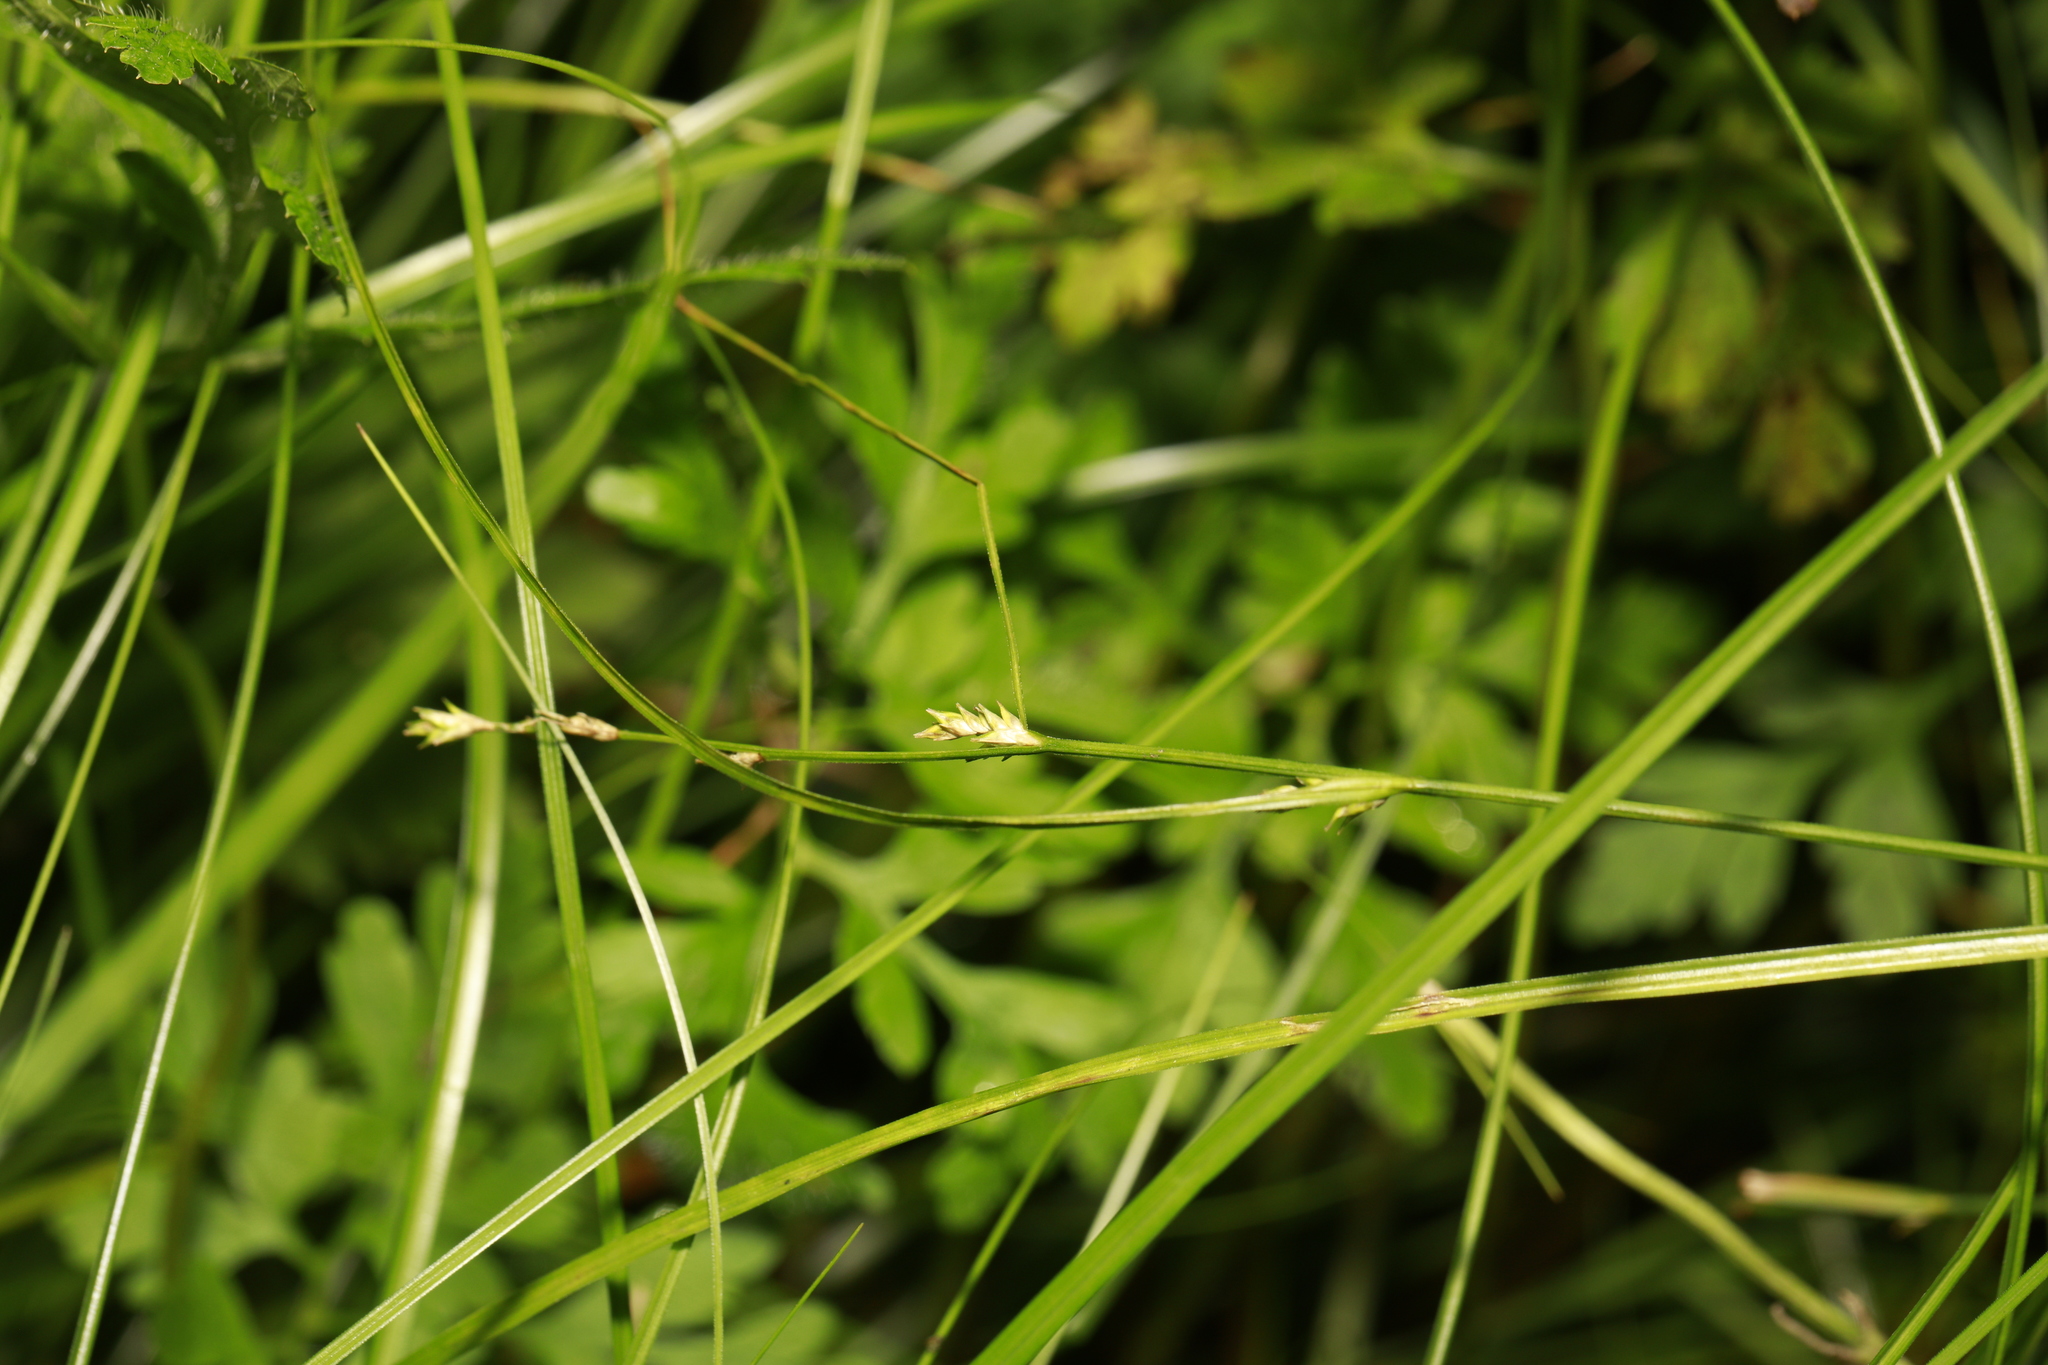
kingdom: Plantae
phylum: Tracheophyta
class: Liliopsida
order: Poales
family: Cyperaceae
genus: Carex
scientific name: Carex remota
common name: Remote sedge
